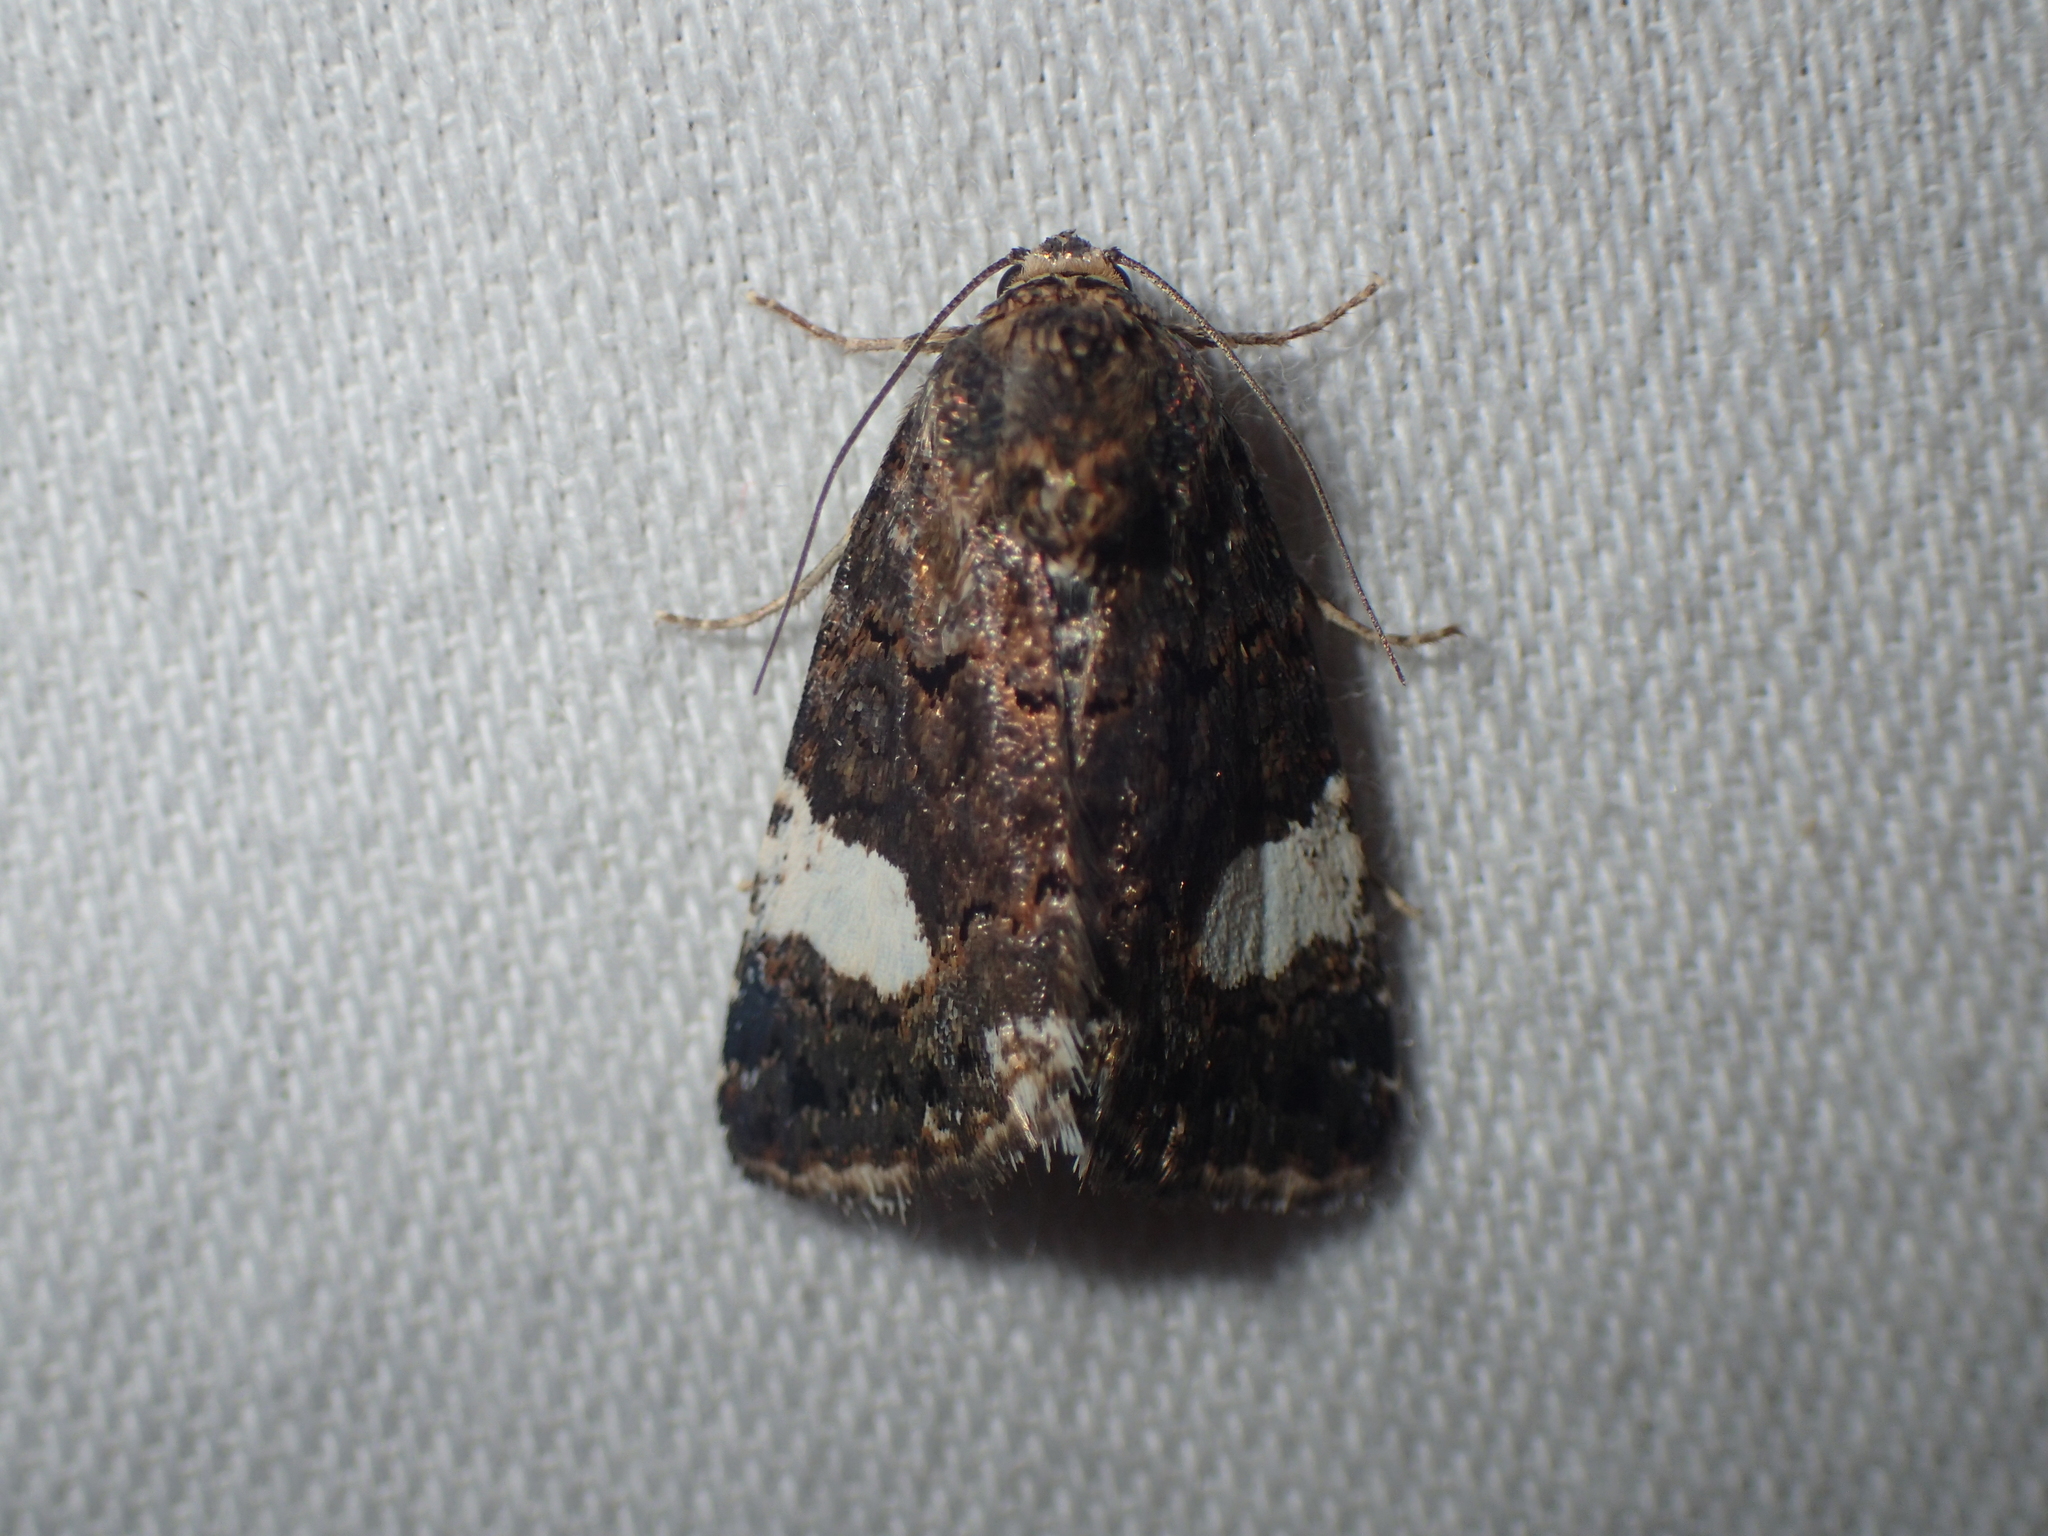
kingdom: Animalia
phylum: Arthropoda
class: Insecta
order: Lepidoptera
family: Erebidae
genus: Tyta
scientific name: Tyta luctuosa
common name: Four-spotted
